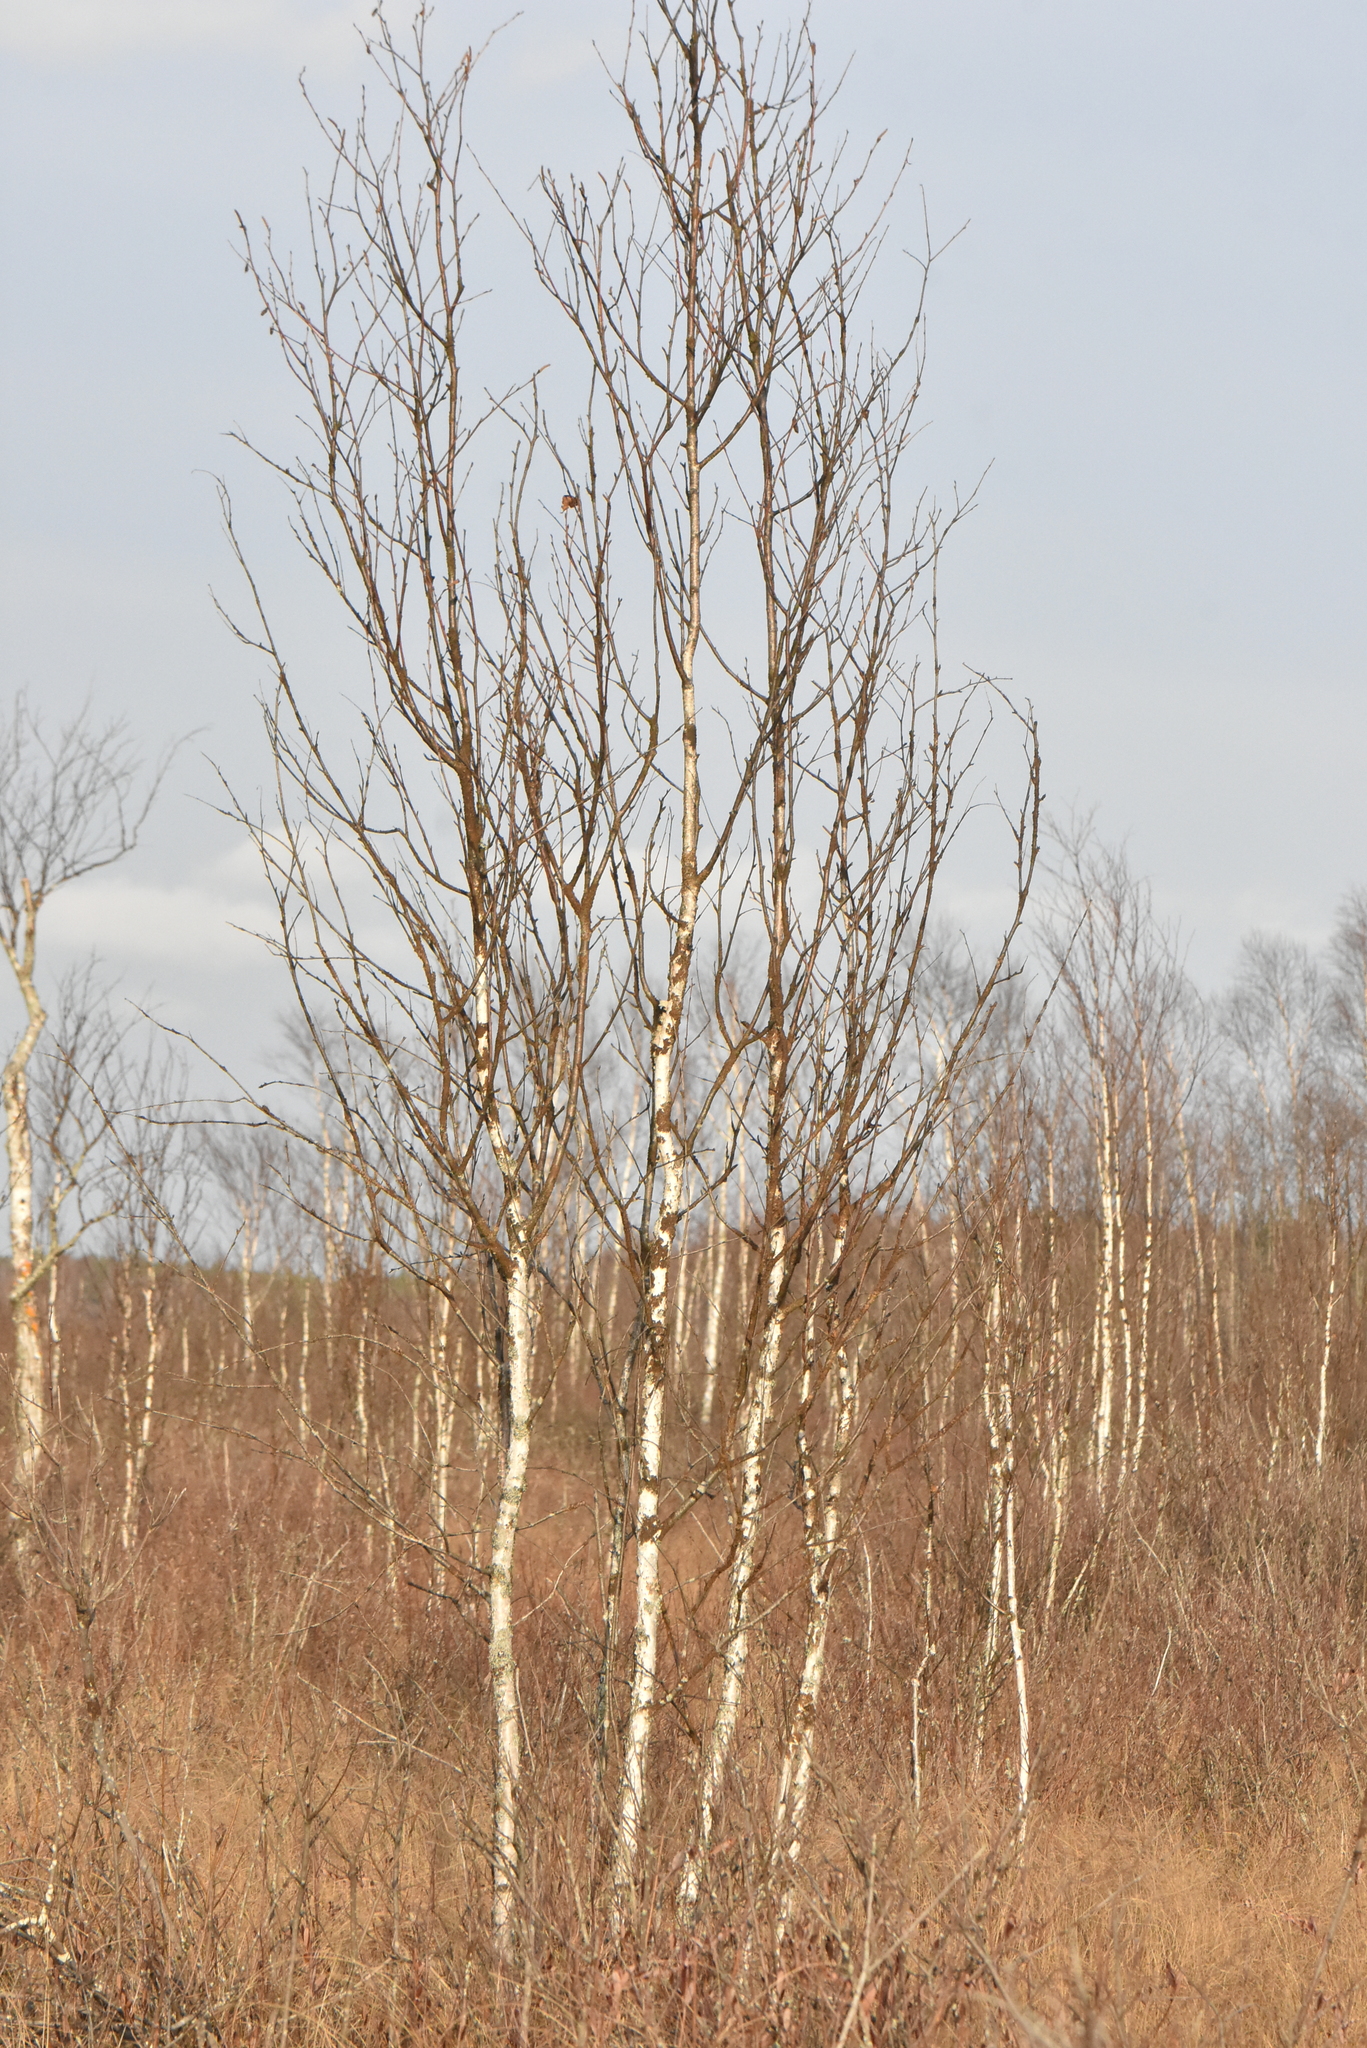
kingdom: Plantae
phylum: Tracheophyta
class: Magnoliopsida
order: Fagales
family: Betulaceae
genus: Betula
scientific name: Betula pubescens
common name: Downy birch
